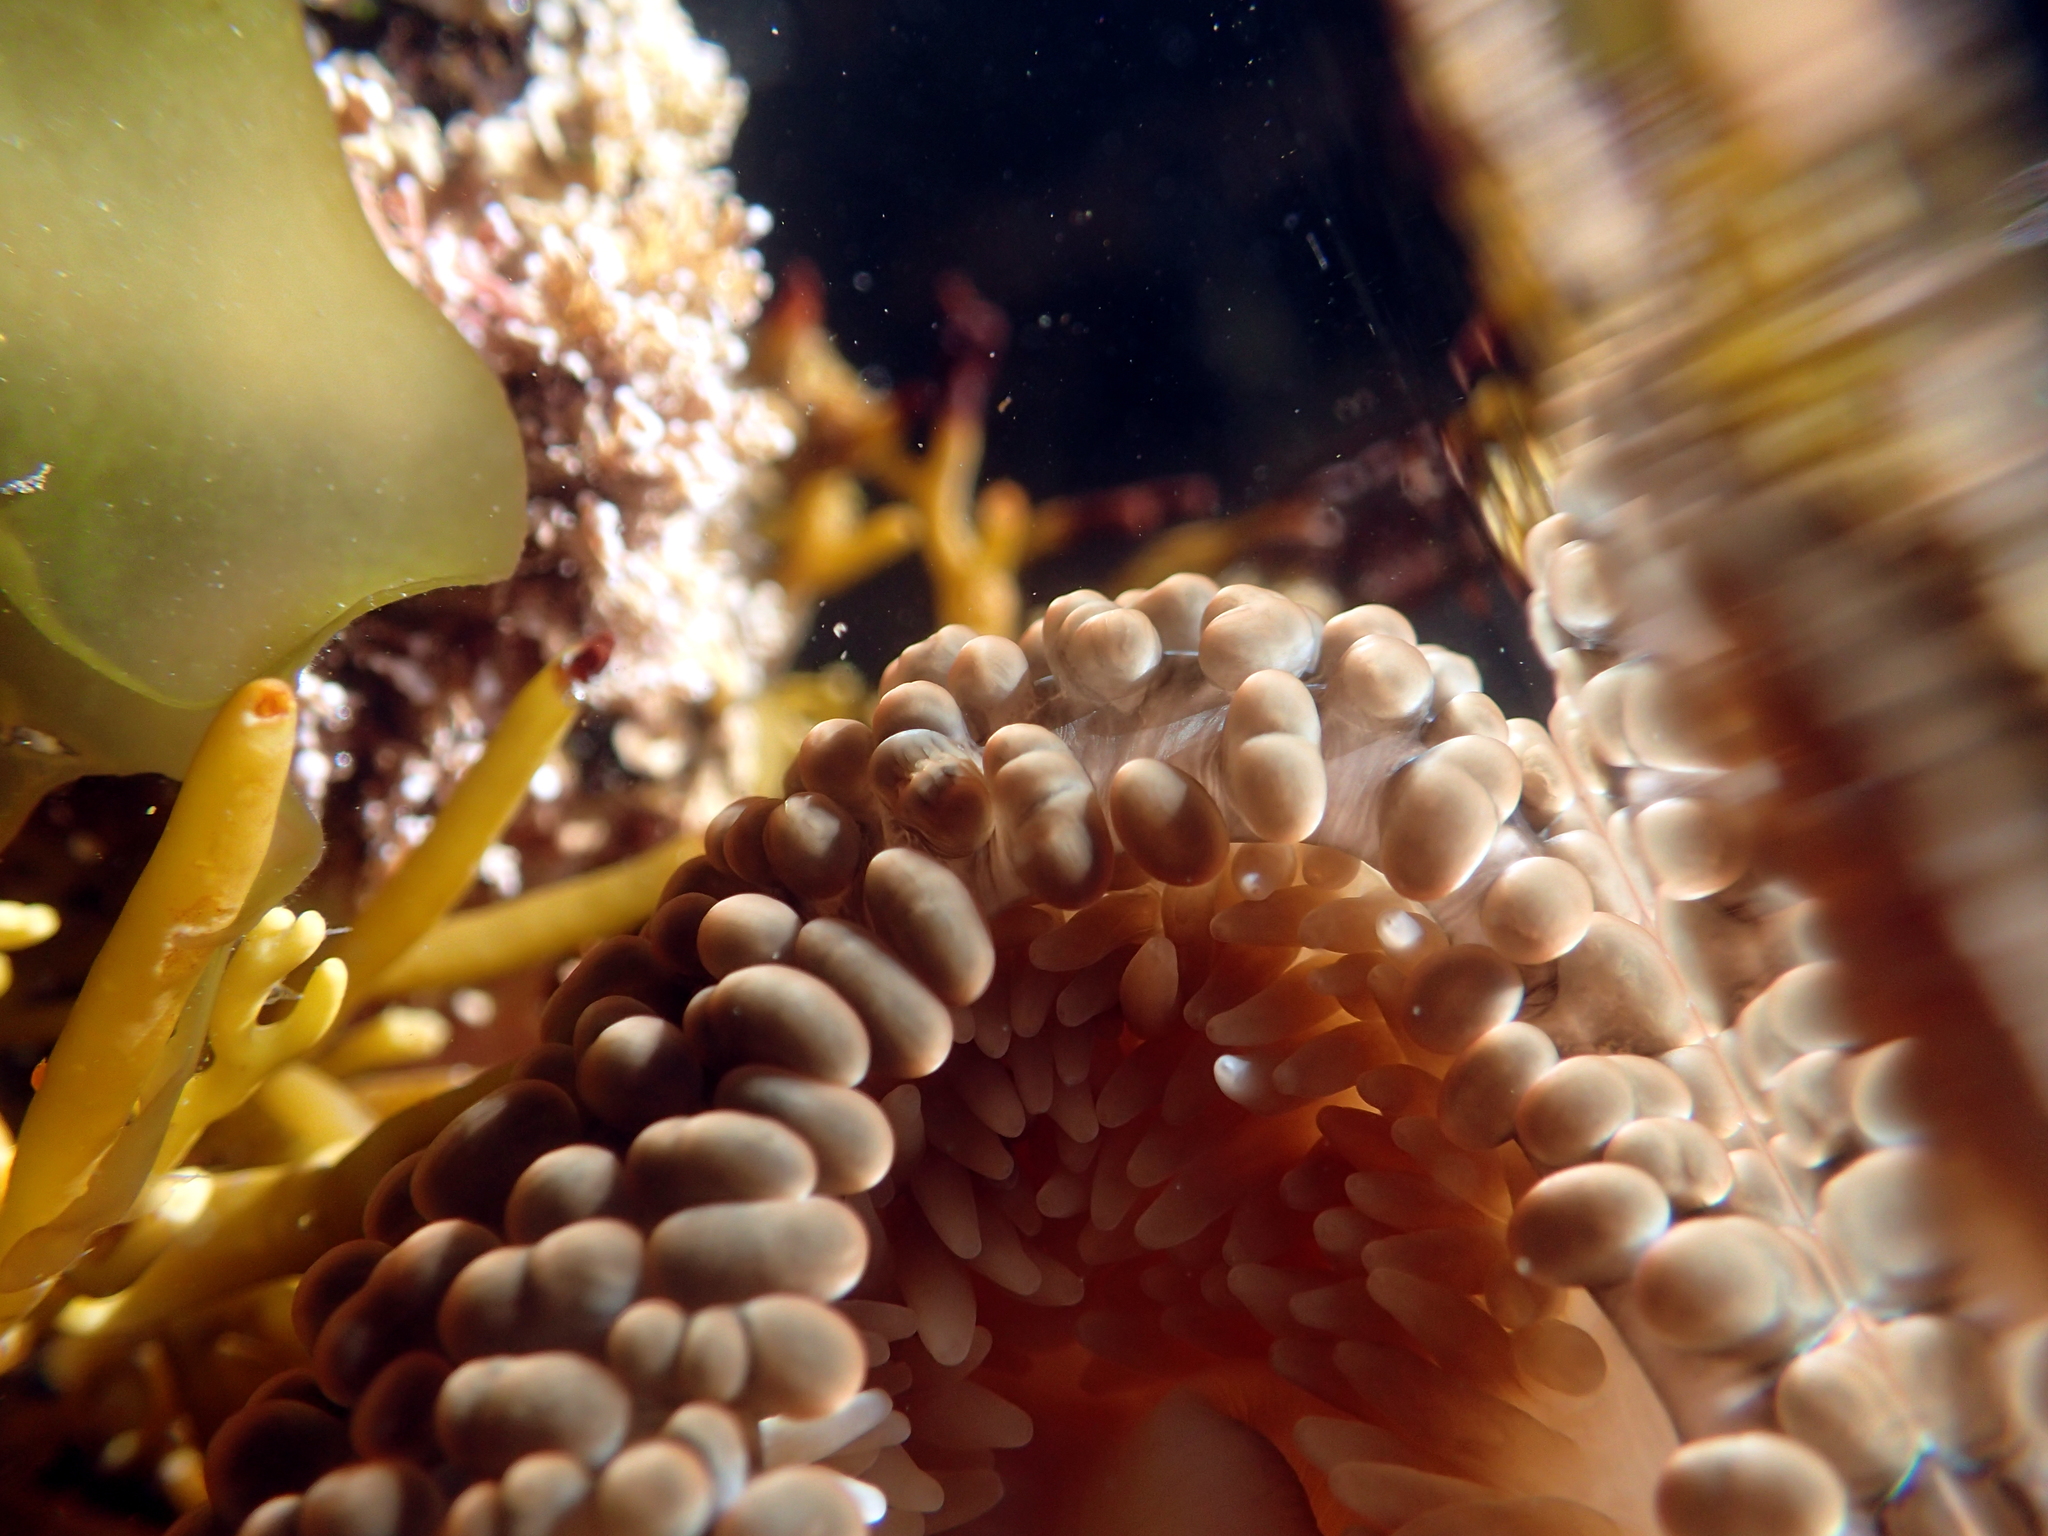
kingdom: Animalia
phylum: Cnidaria
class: Anthozoa
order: Actiniaria
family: Actiniidae
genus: Phlyctenactis
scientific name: Phlyctenactis tuberculosa
